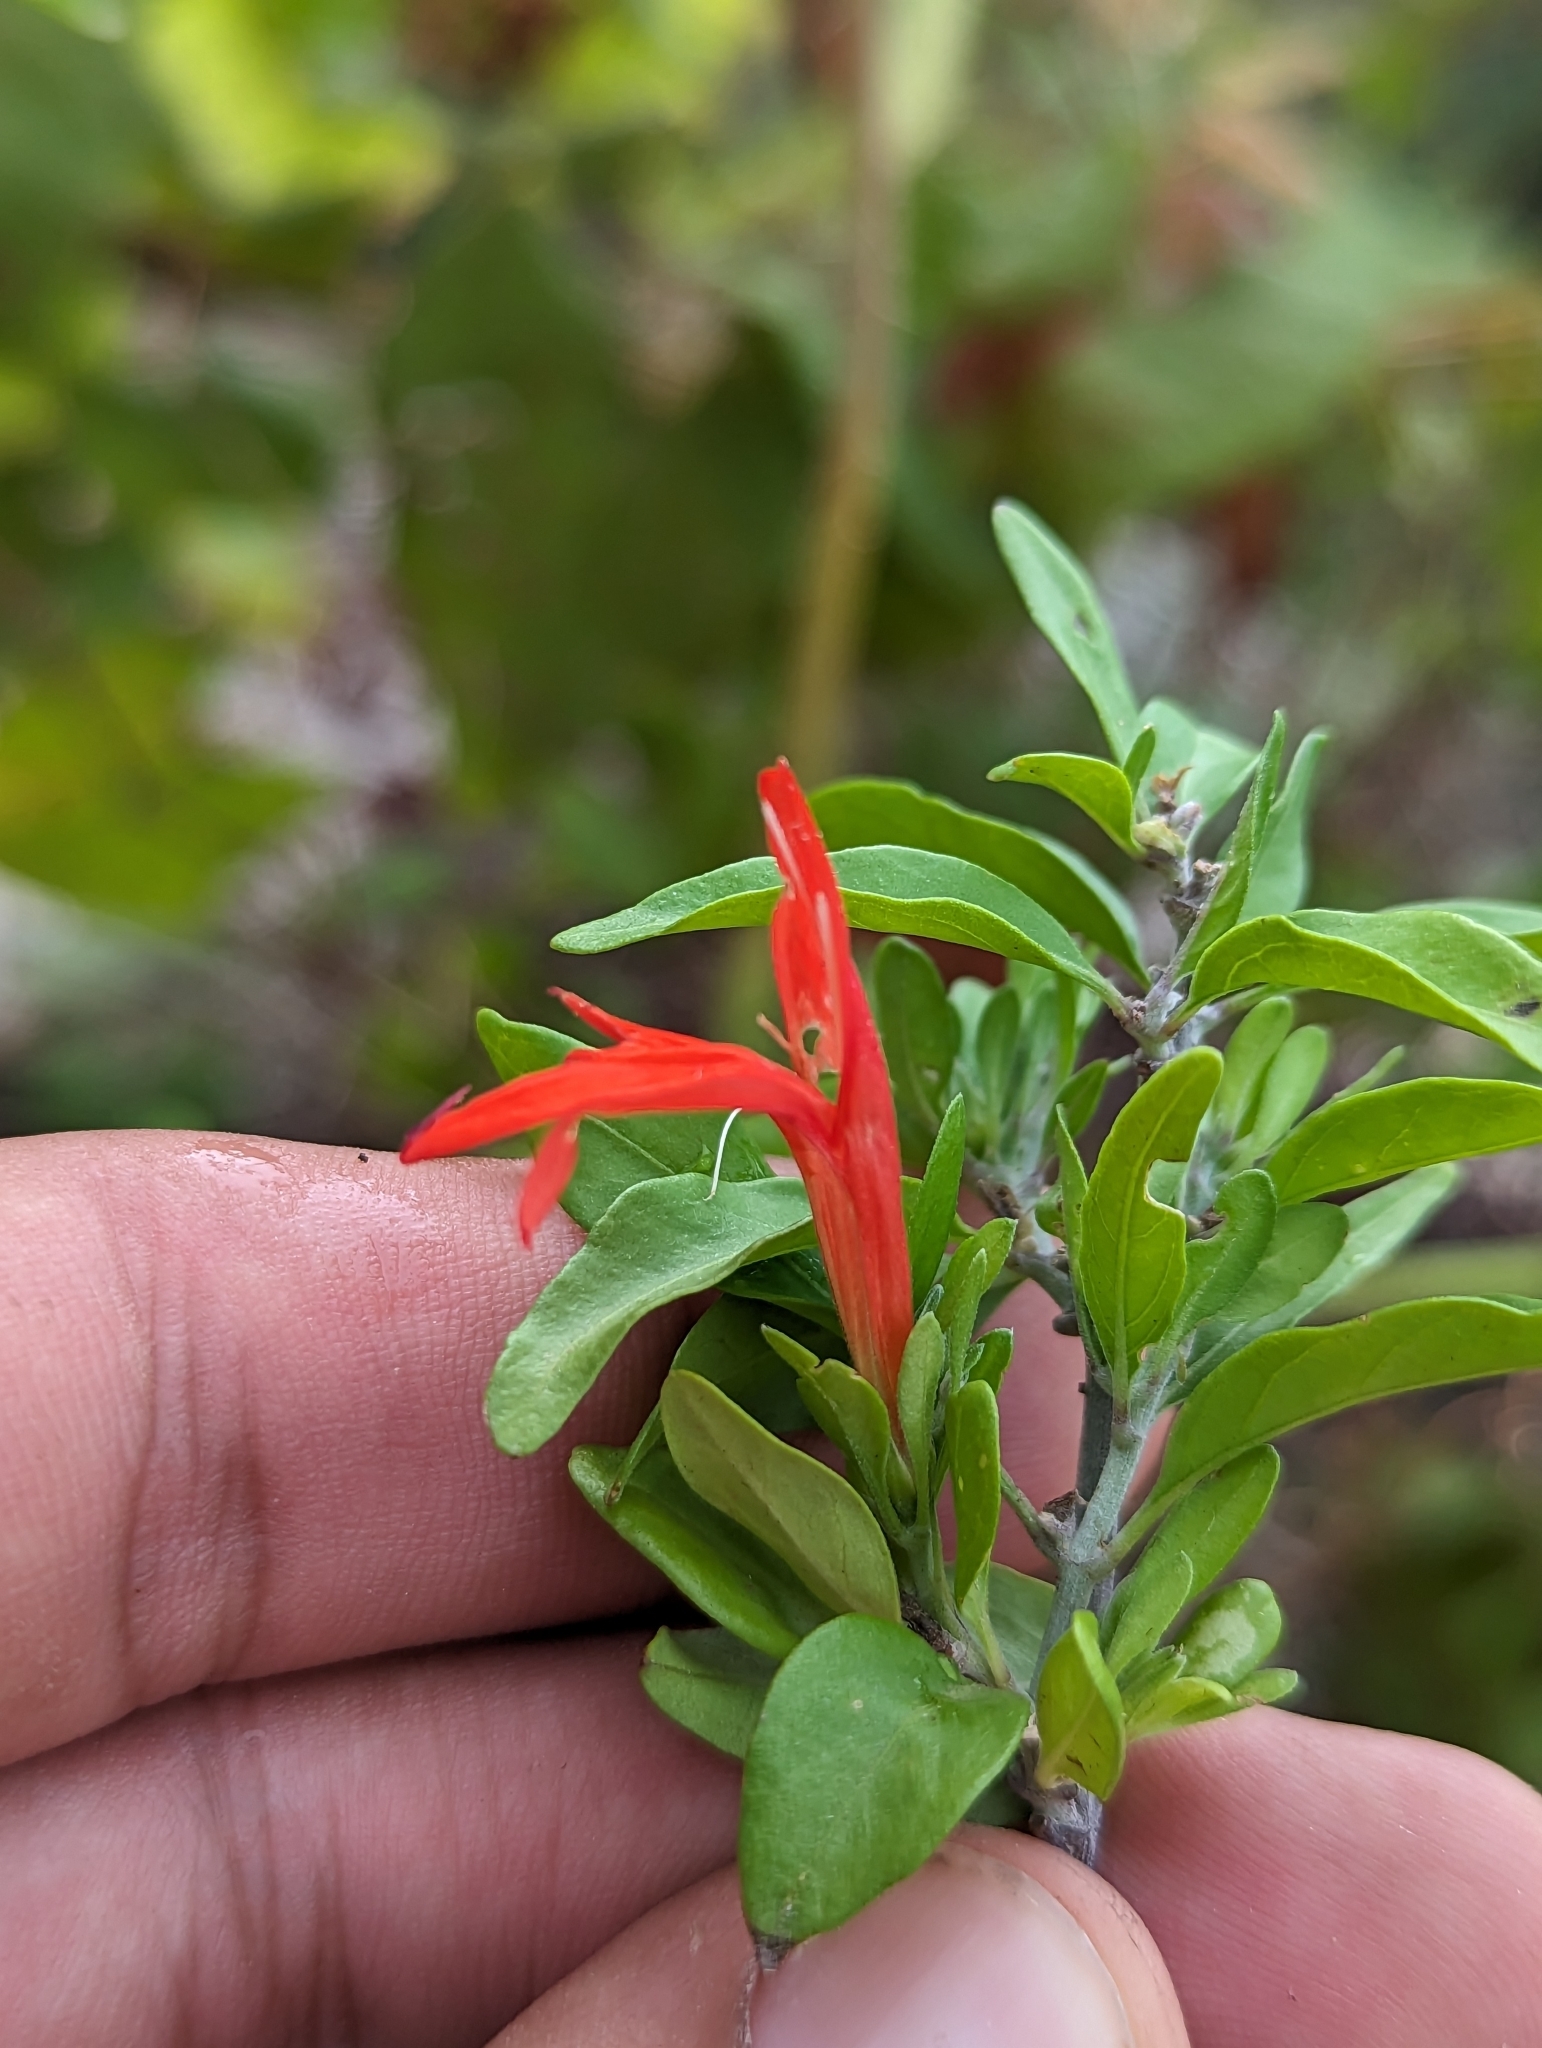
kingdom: Plantae
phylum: Tracheophyta
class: Magnoliopsida
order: Lamiales
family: Acanthaceae
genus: Justicia
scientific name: Justicia palmeri
